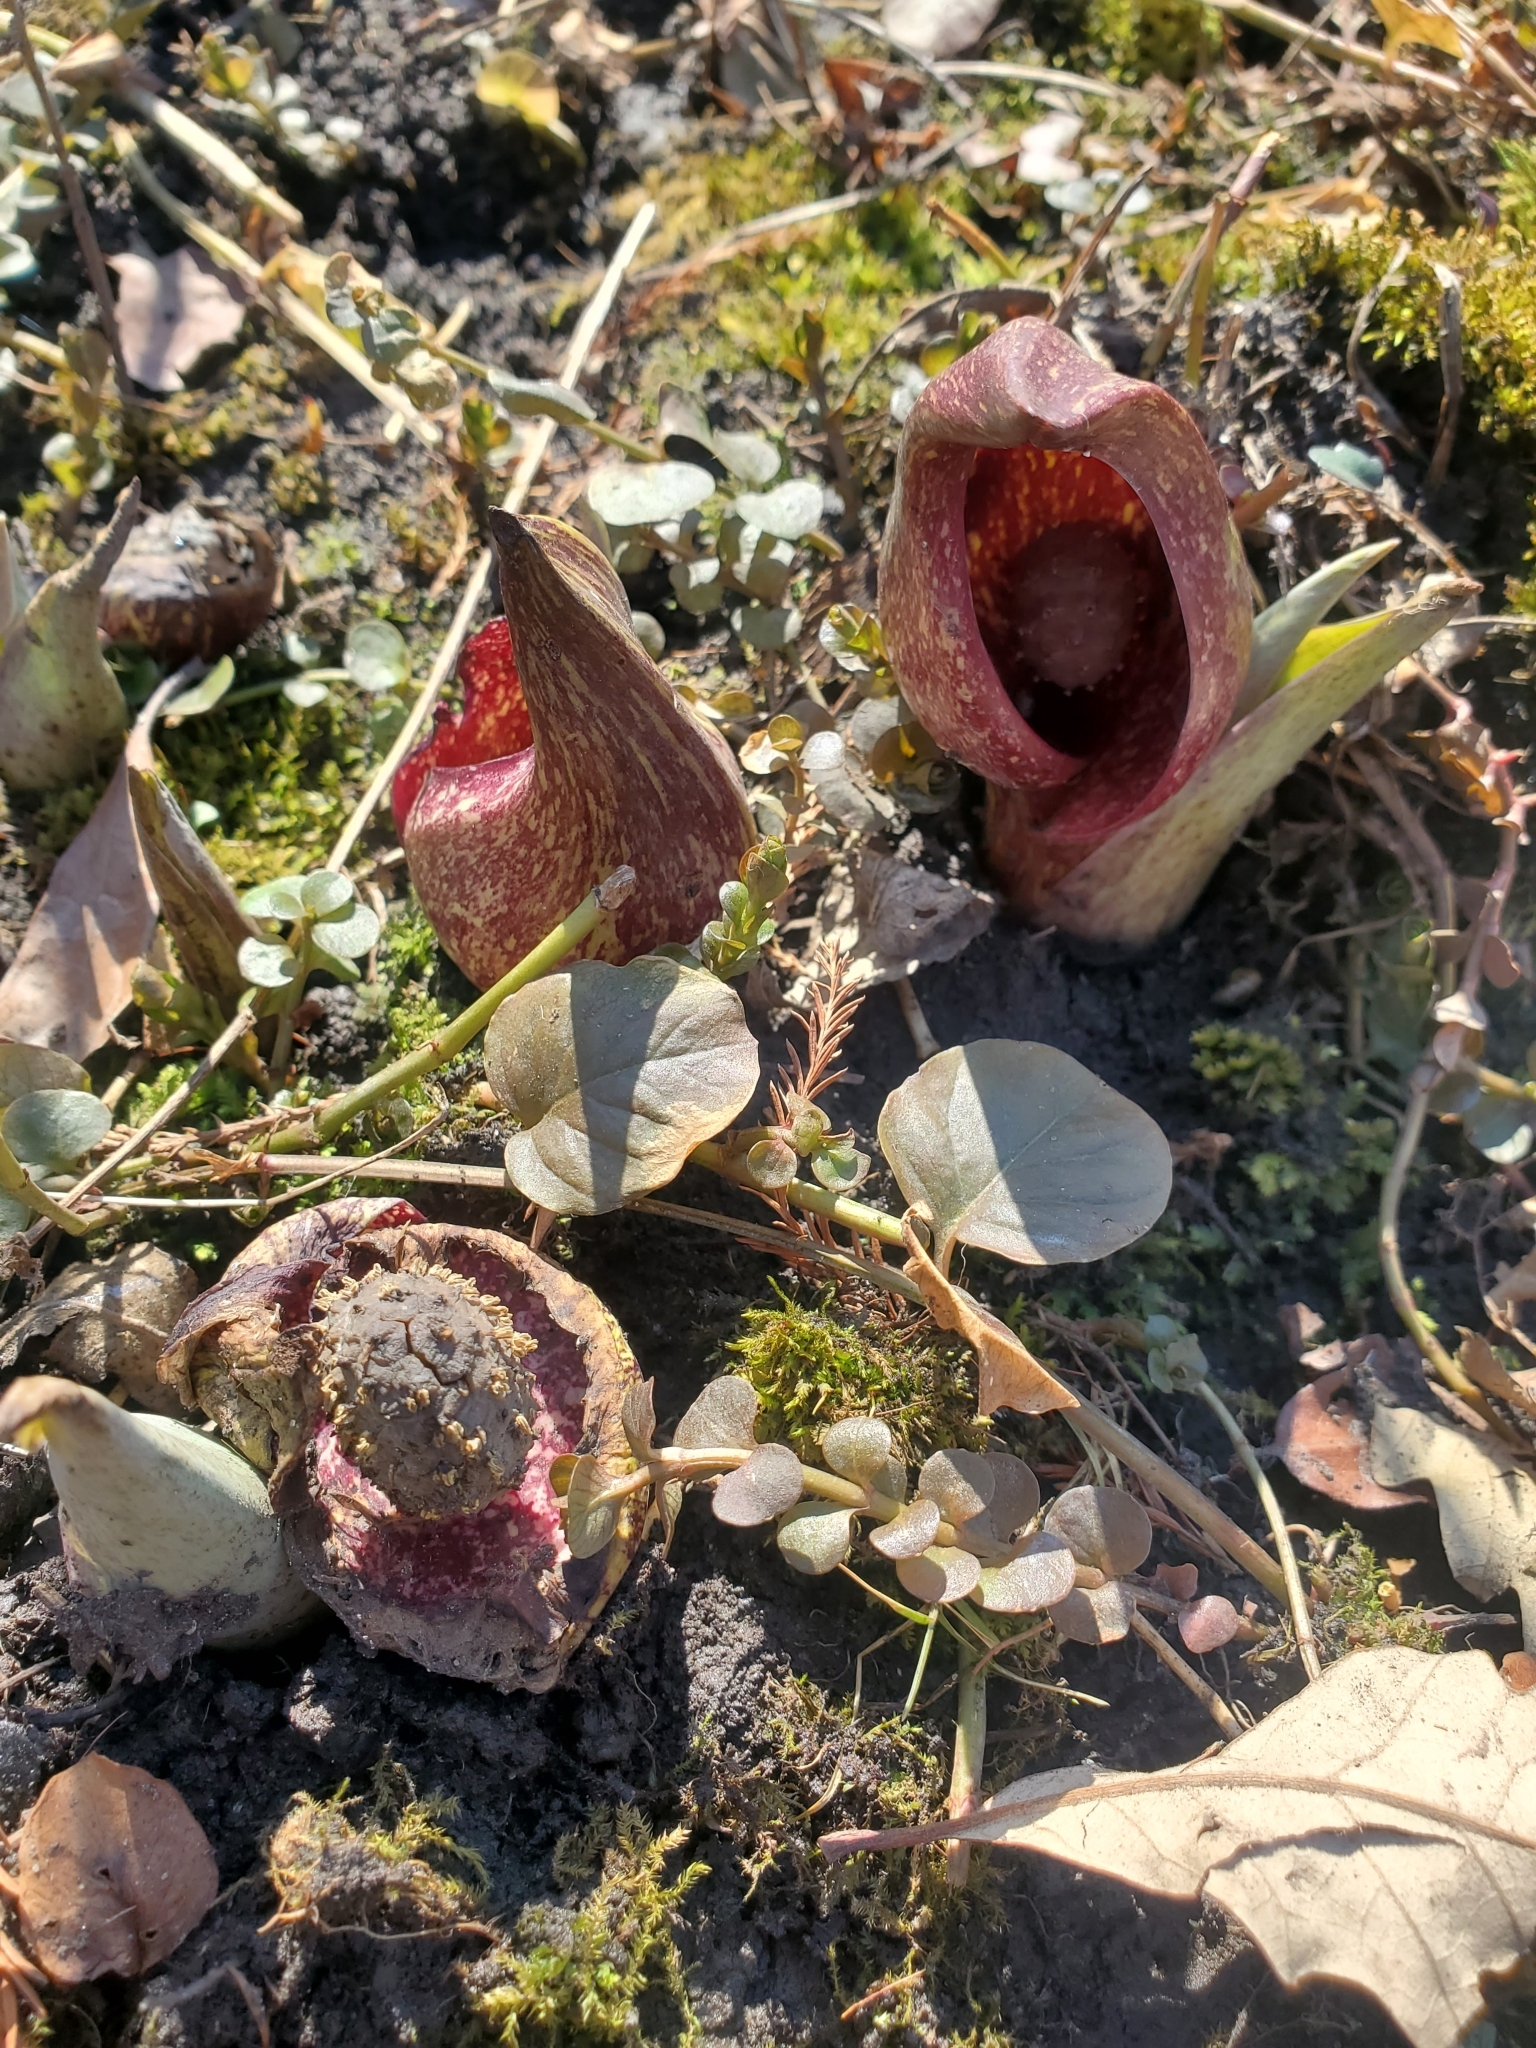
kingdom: Plantae
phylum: Tracheophyta
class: Liliopsida
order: Alismatales
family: Araceae
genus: Symplocarpus
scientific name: Symplocarpus foetidus
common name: Eastern skunk cabbage
